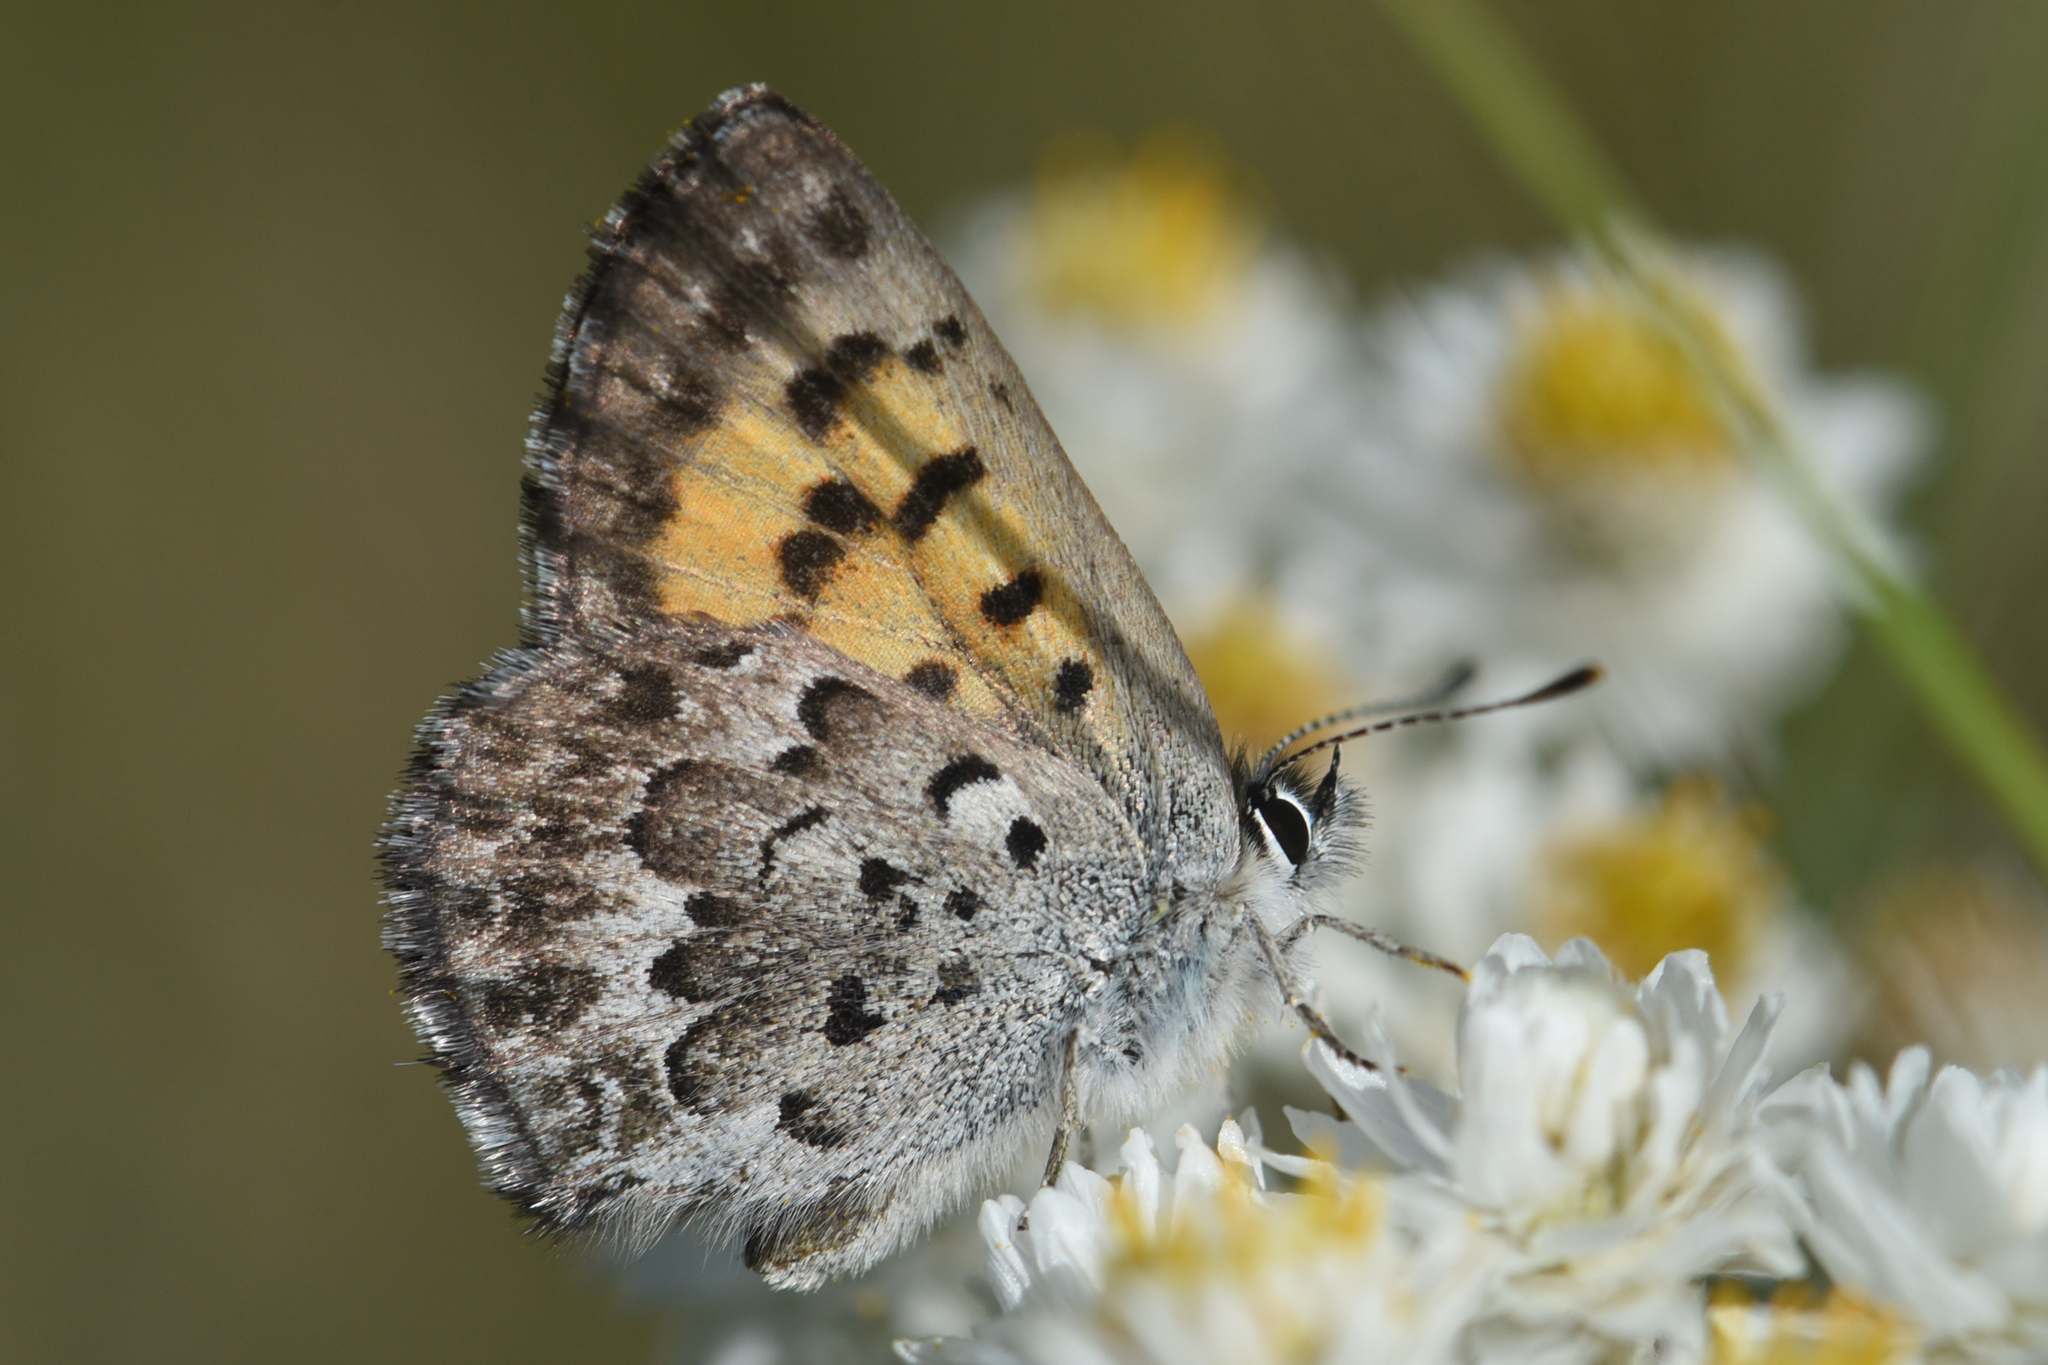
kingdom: Animalia
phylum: Arthropoda
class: Insecta
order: Lepidoptera
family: Lycaenidae
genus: Tharsalea
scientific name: Tharsalea mariposa
